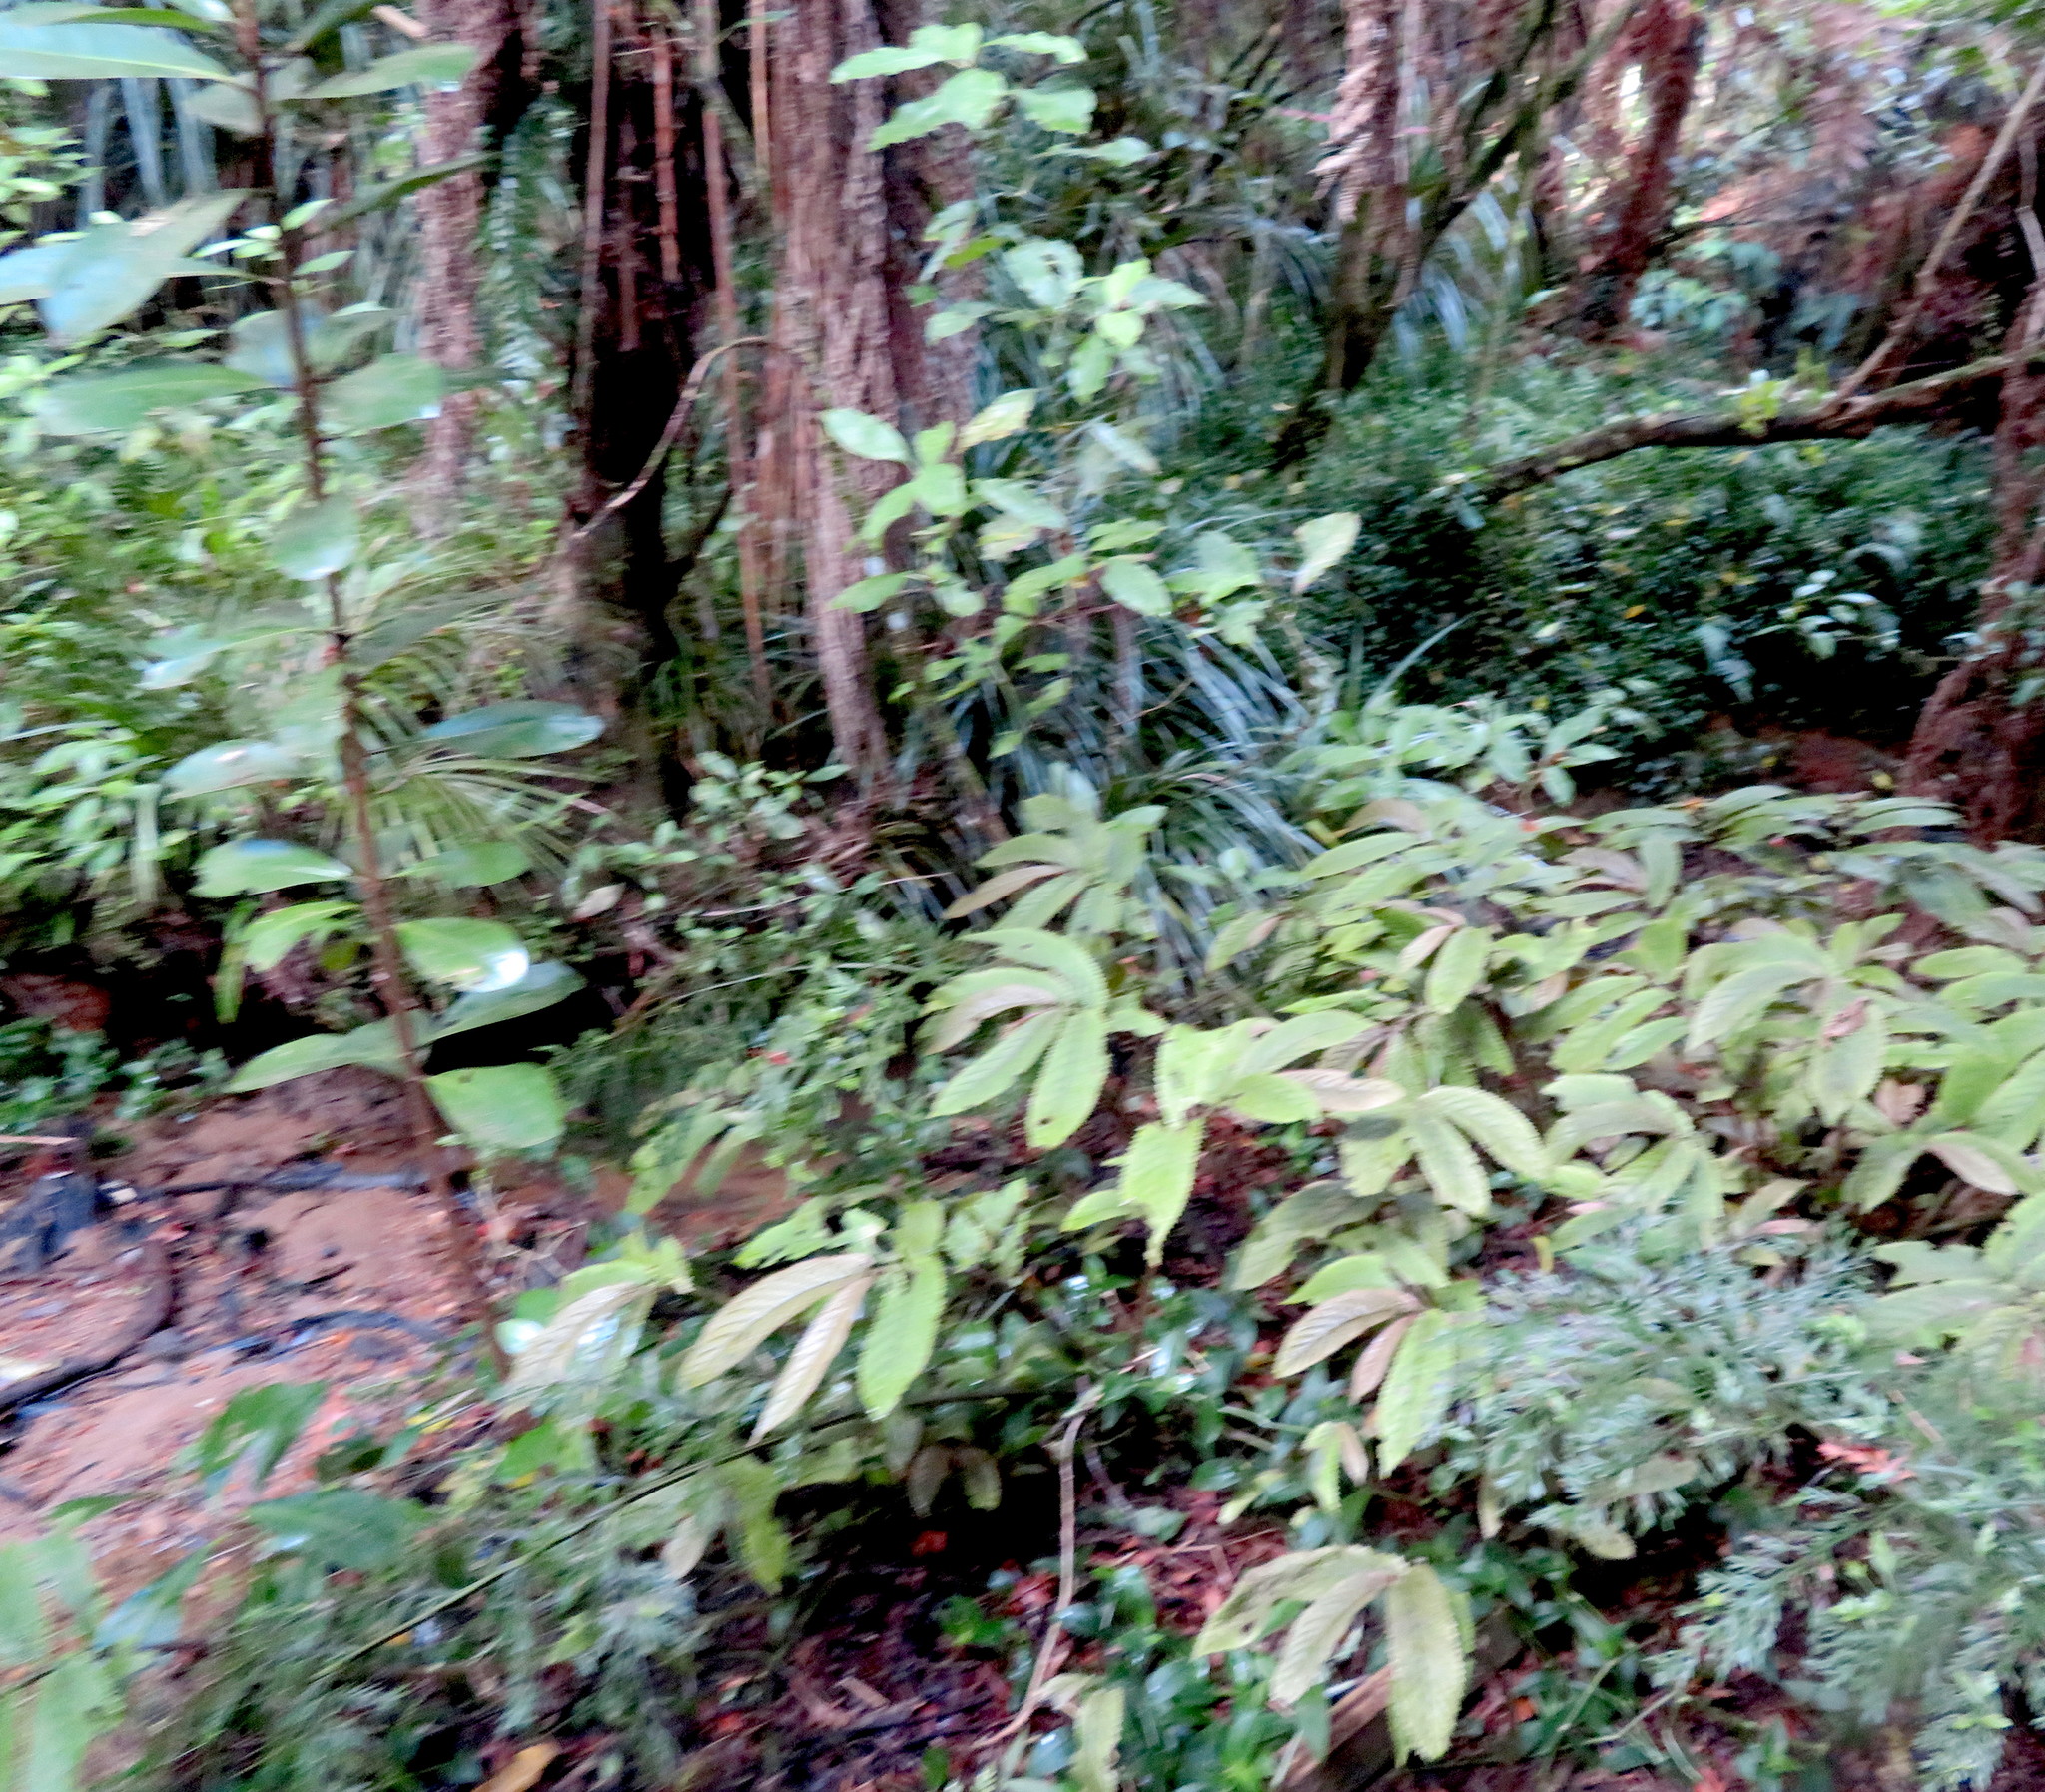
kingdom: Plantae
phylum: Tracheophyta
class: Magnoliopsida
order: Cucurbitales
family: Corynocarpaceae
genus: Corynocarpus
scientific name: Corynocarpus laevigatus
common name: New zealand laurel
